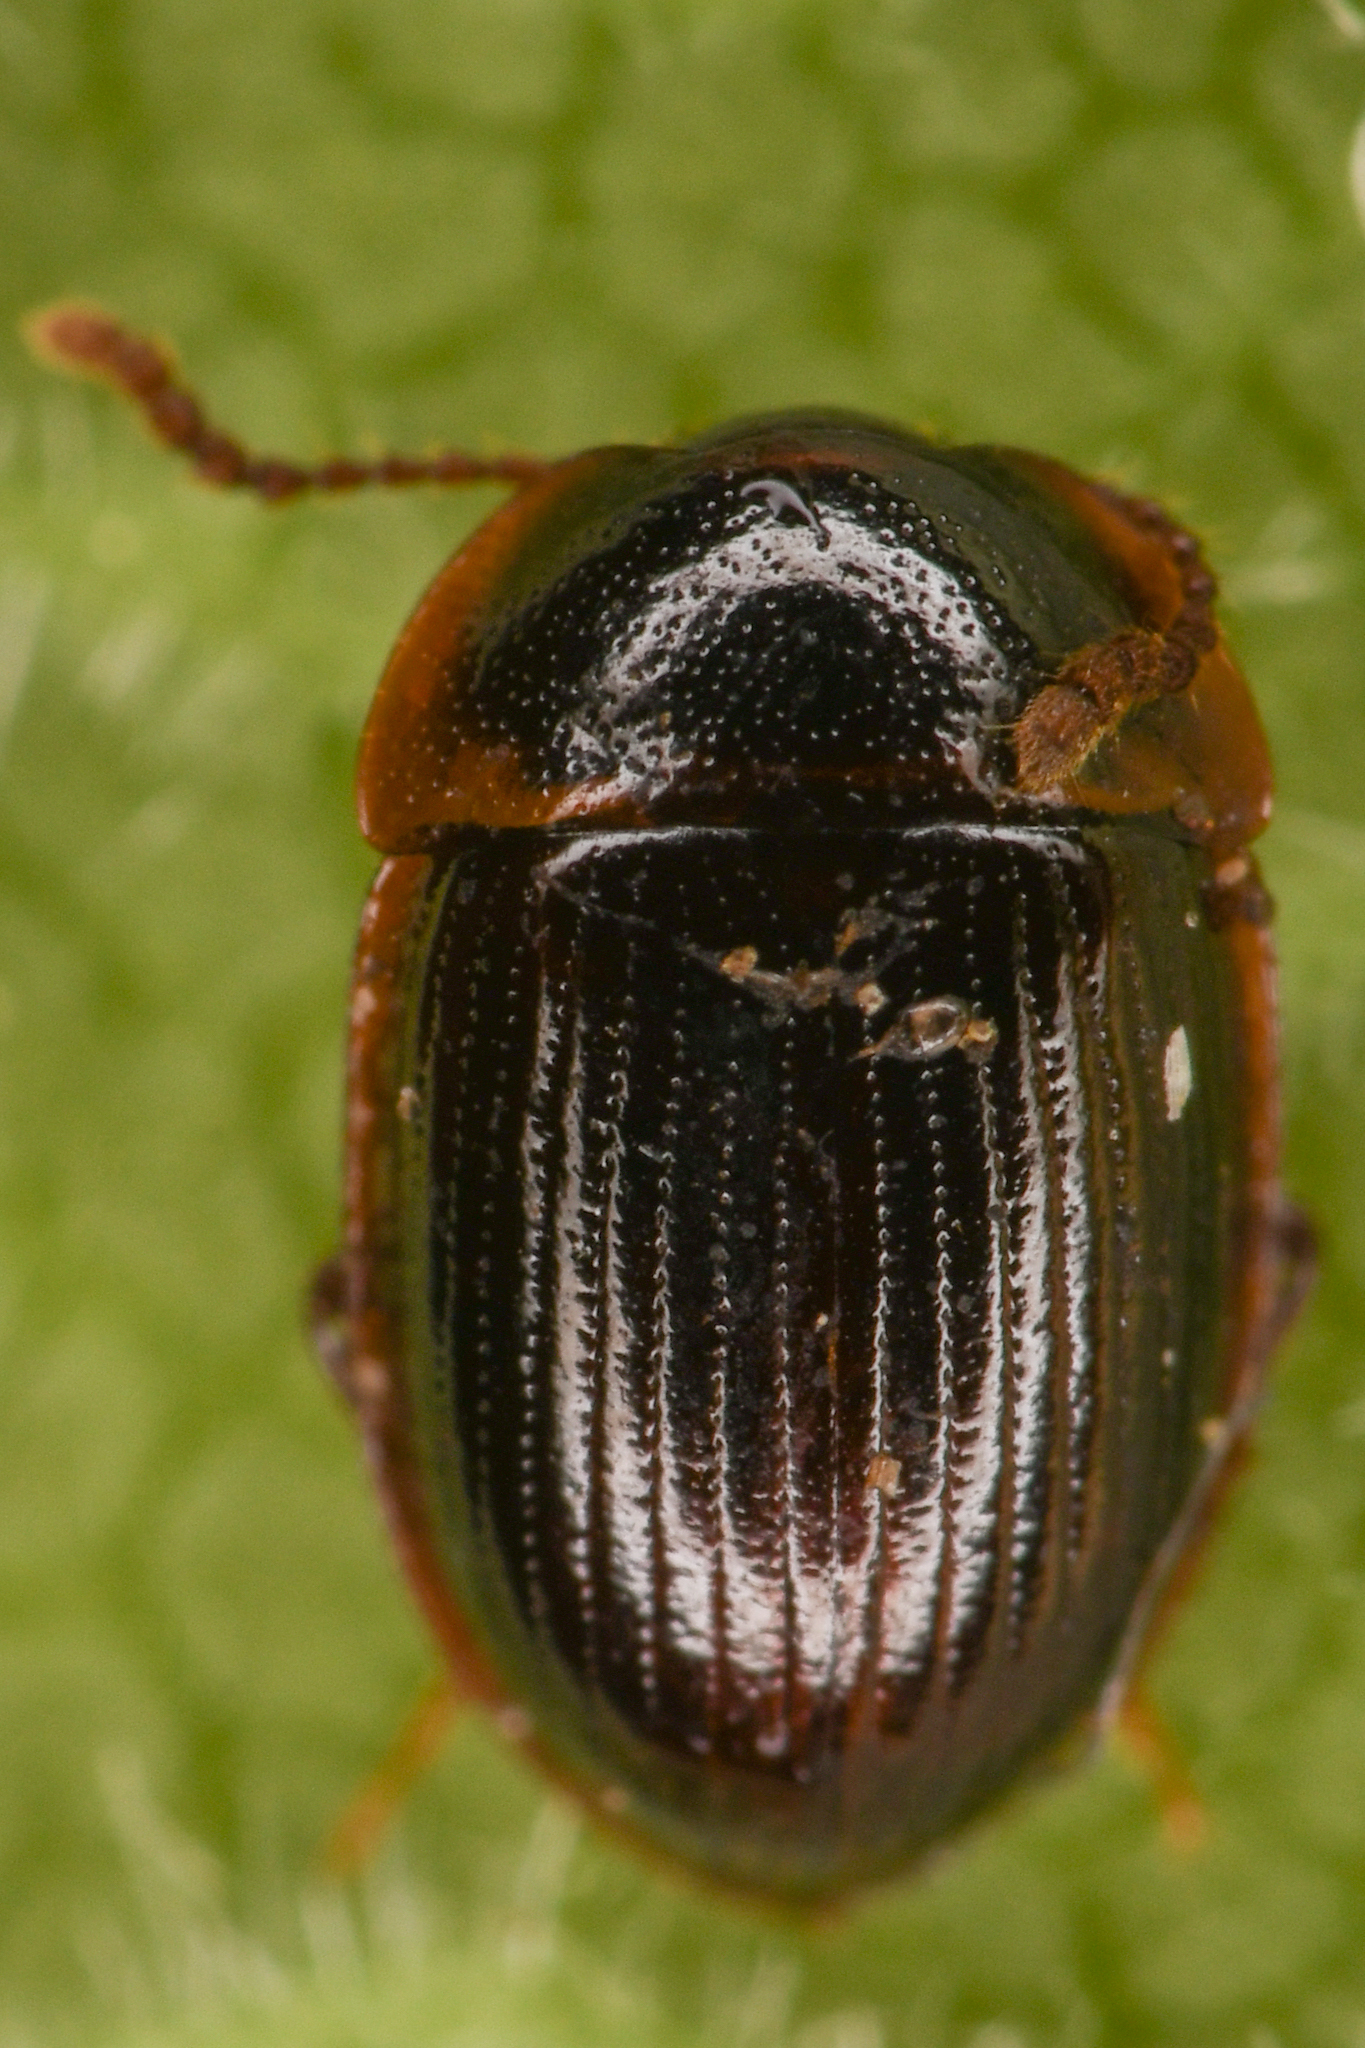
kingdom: Animalia
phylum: Arthropoda
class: Insecta
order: Coleoptera
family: Agyrtidae
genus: Ipelates
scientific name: Ipelates latus
